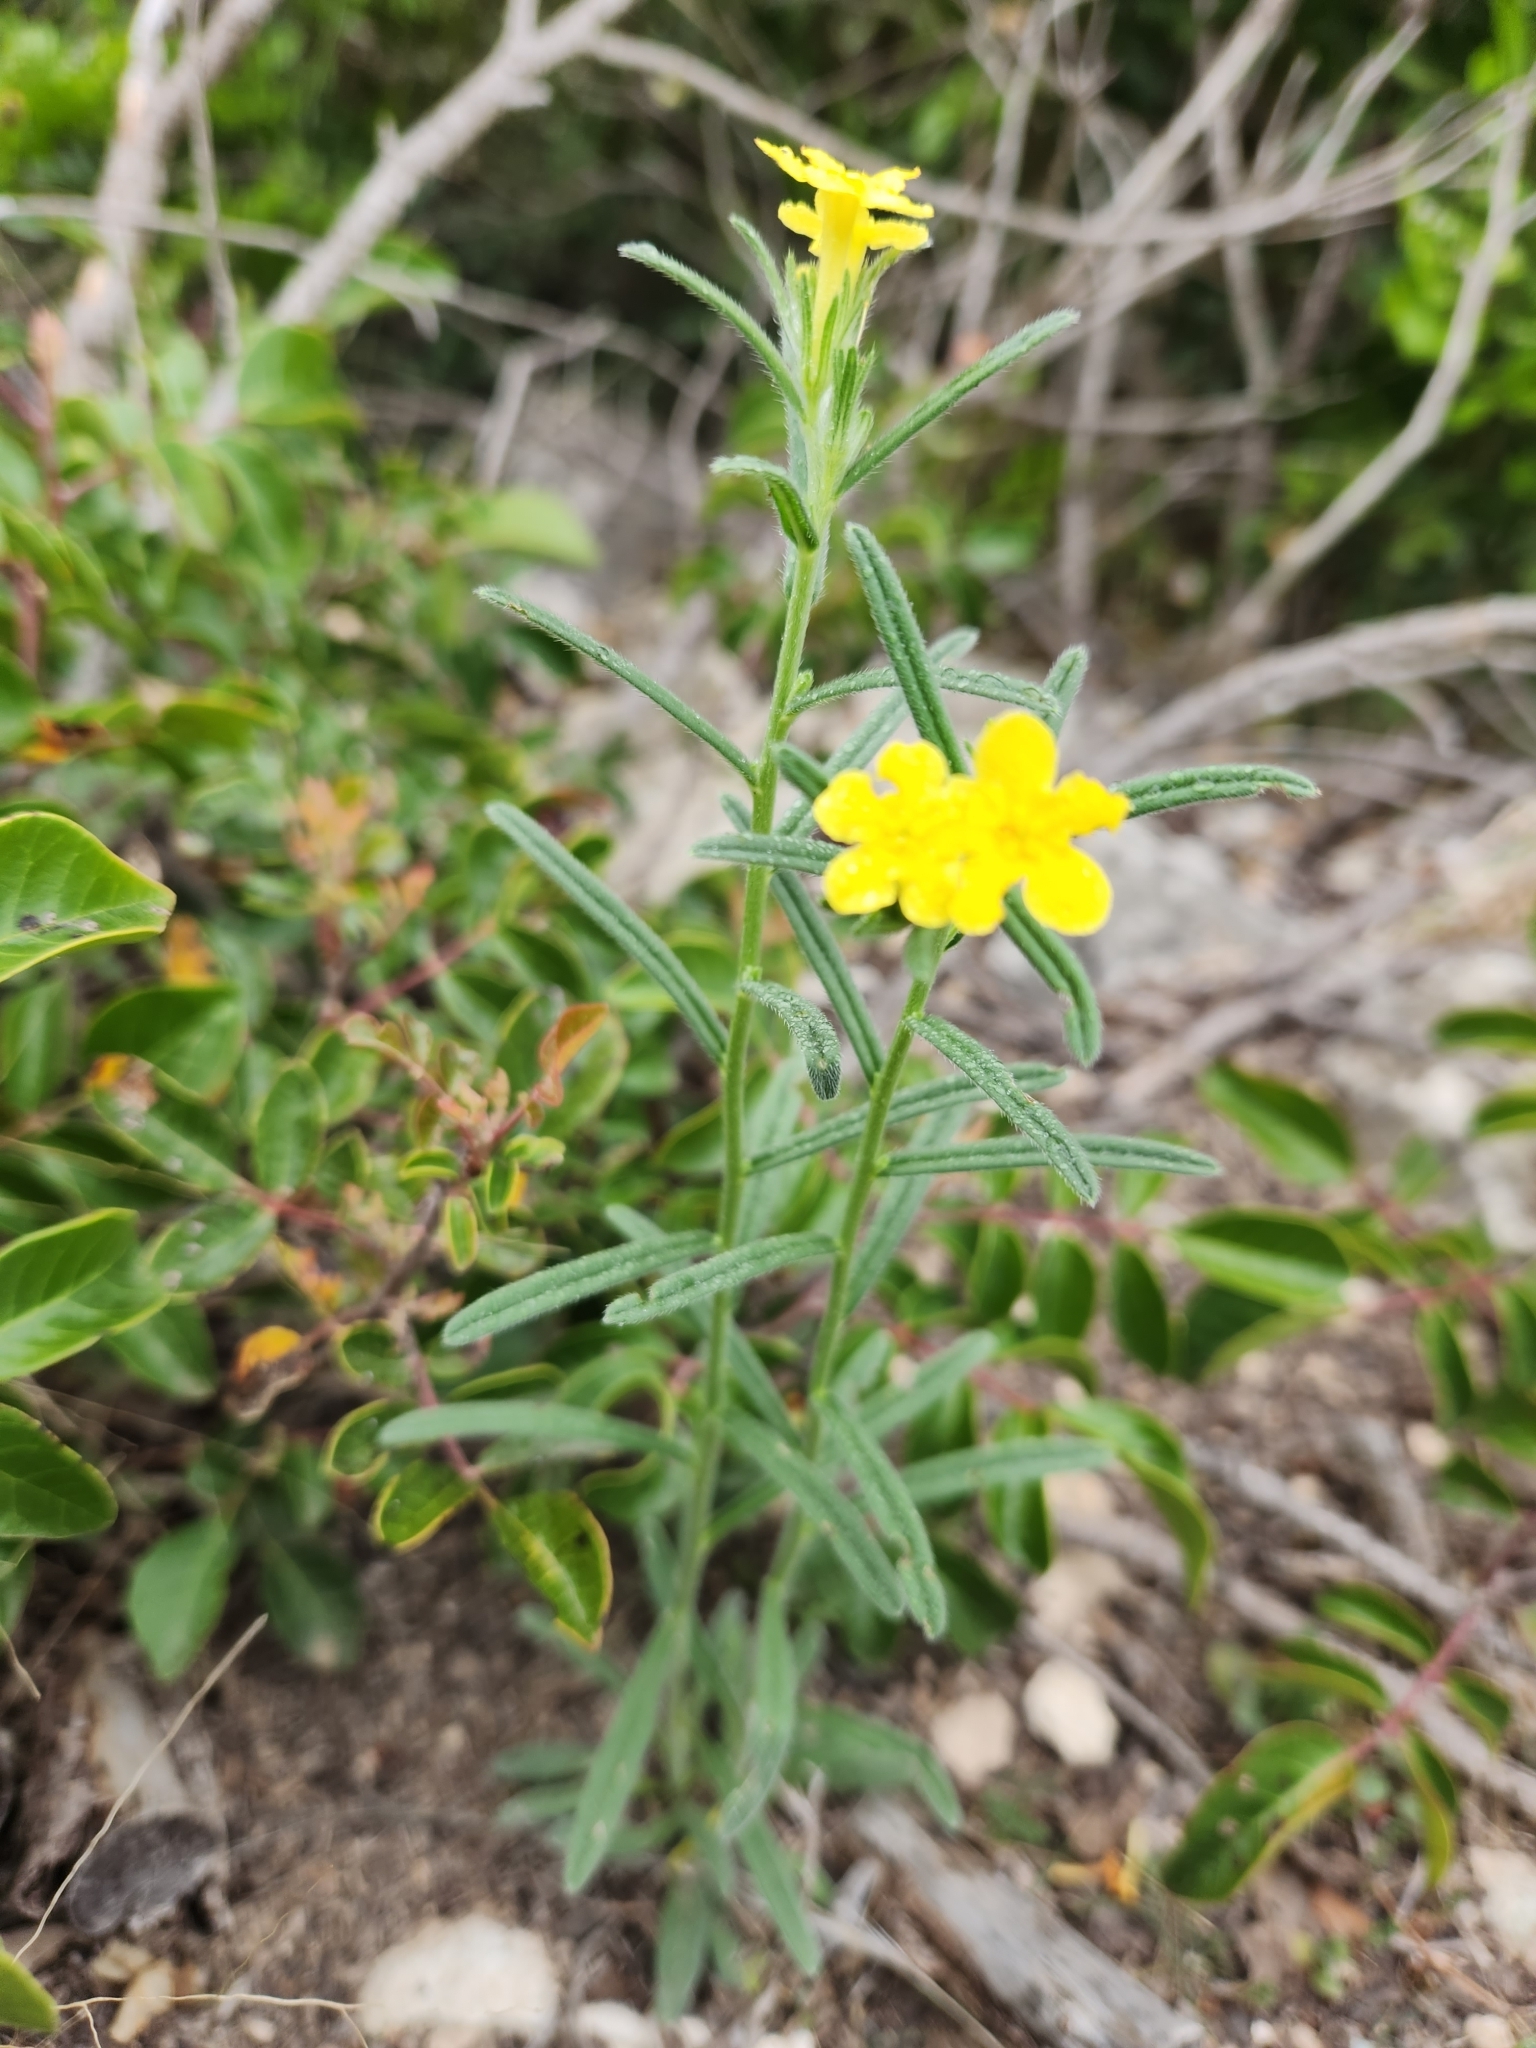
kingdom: Plantae
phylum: Tracheophyta
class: Magnoliopsida
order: Boraginales
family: Boraginaceae
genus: Lithospermum
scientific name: Lithospermum mirabile
